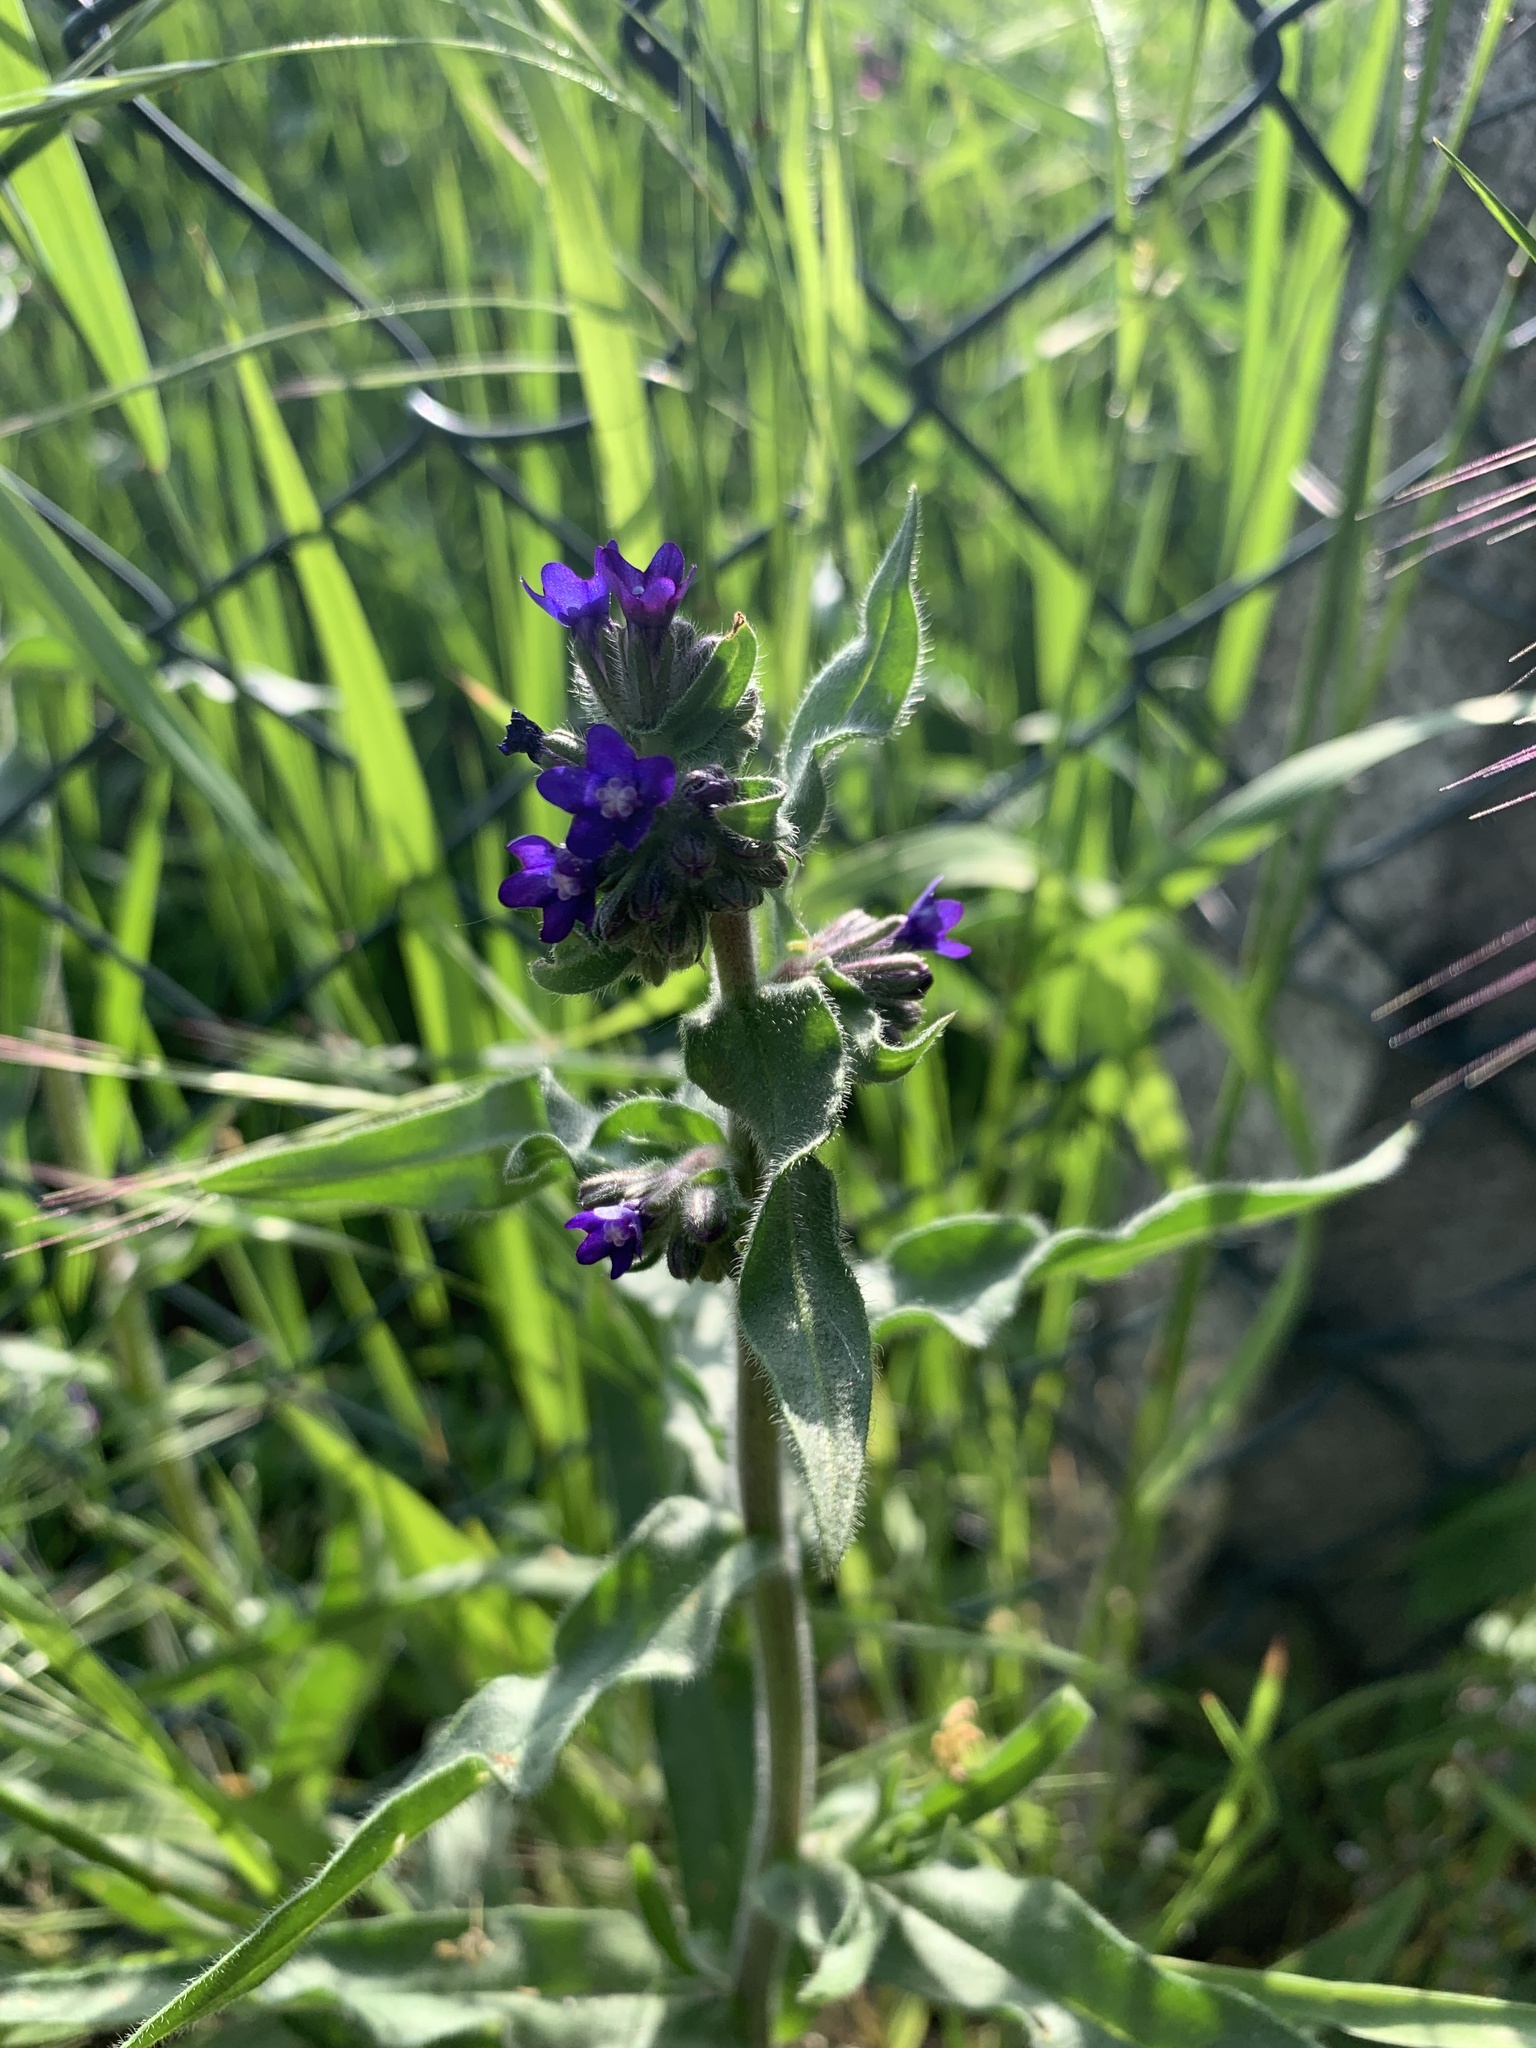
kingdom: Plantae
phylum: Tracheophyta
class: Magnoliopsida
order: Boraginales
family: Boraginaceae
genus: Anchusa
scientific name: Anchusa officinalis
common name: Alkanet
